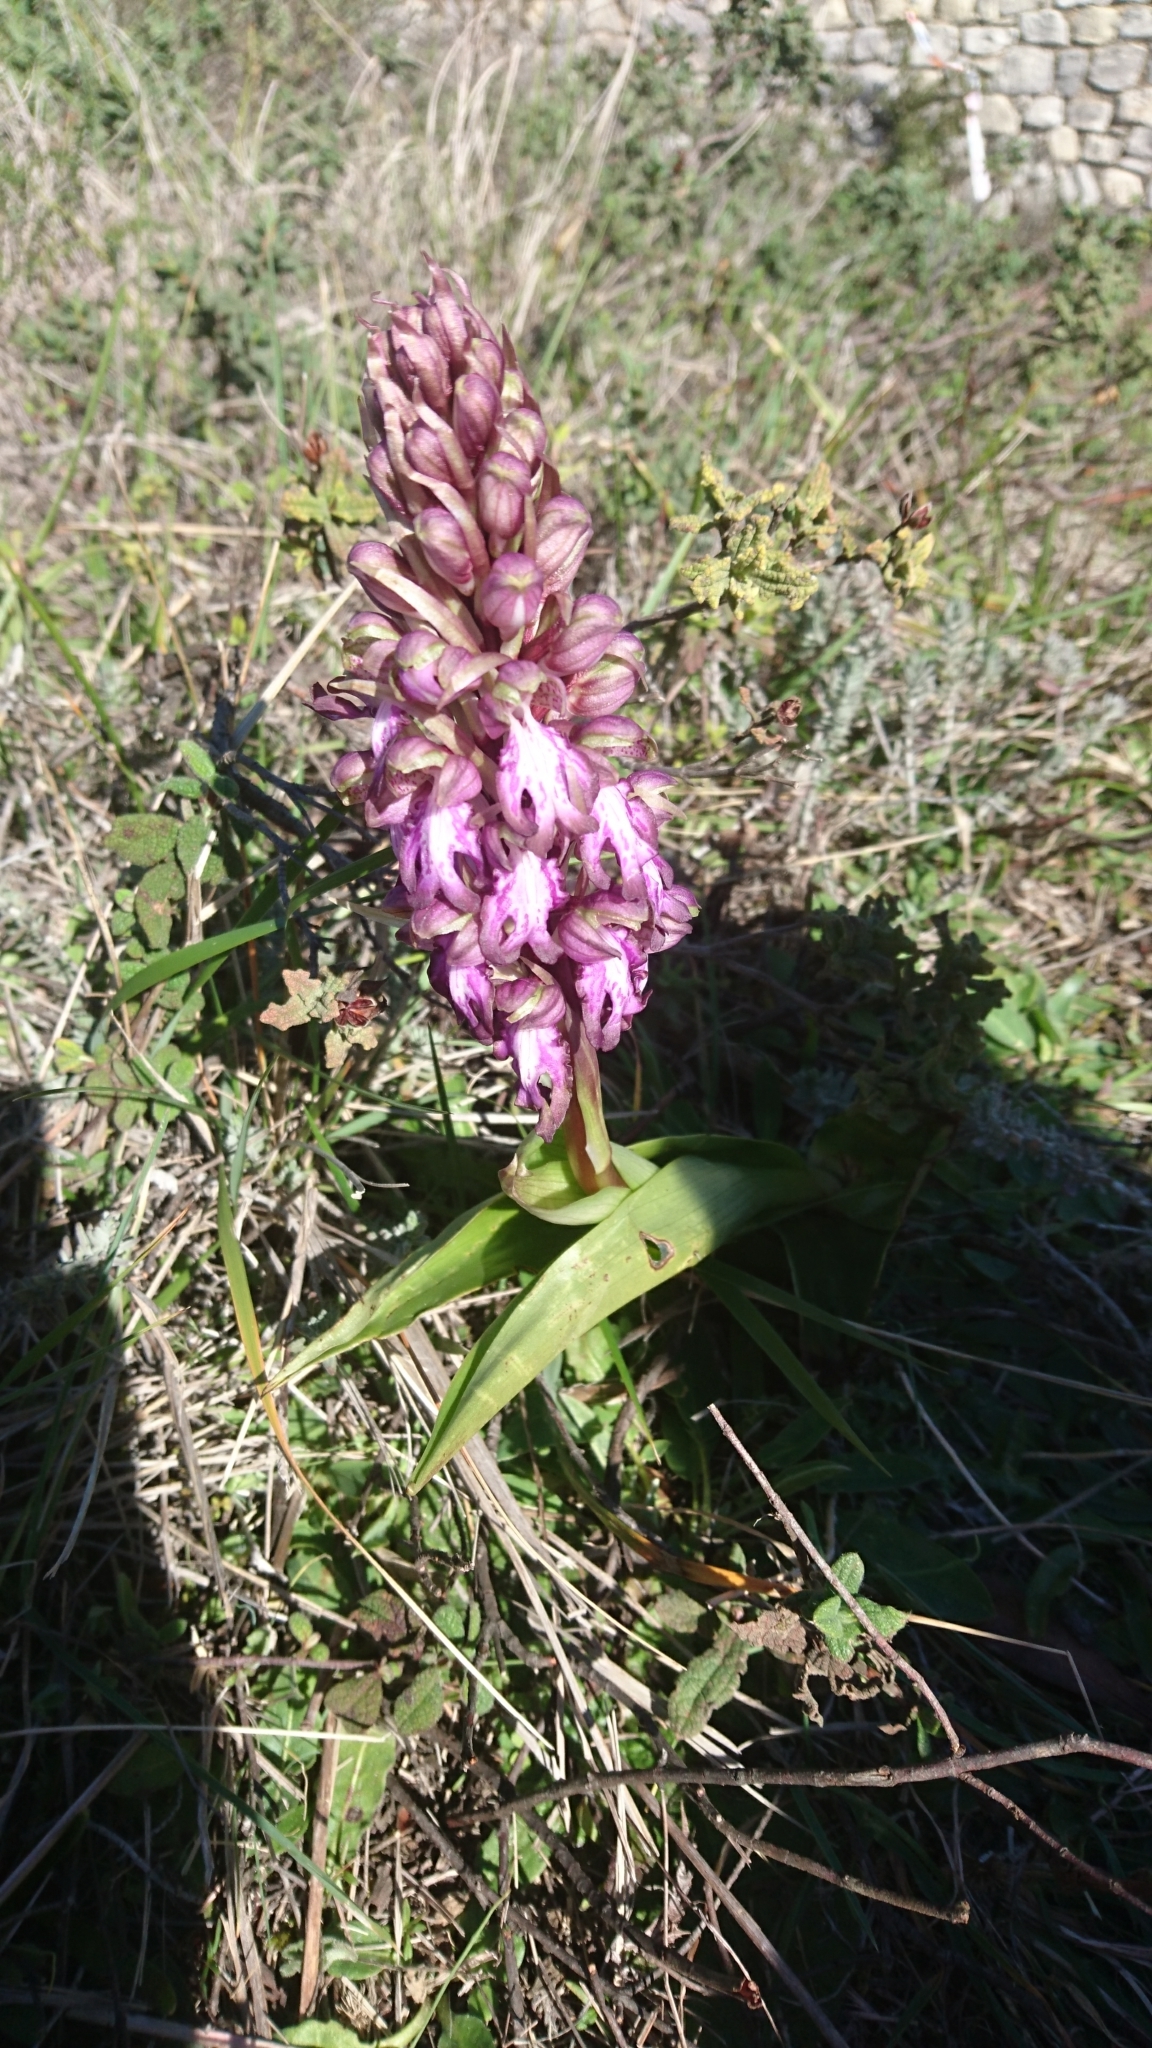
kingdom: Plantae
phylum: Tracheophyta
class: Liliopsida
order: Asparagales
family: Orchidaceae
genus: Himantoglossum
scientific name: Himantoglossum robertianum
